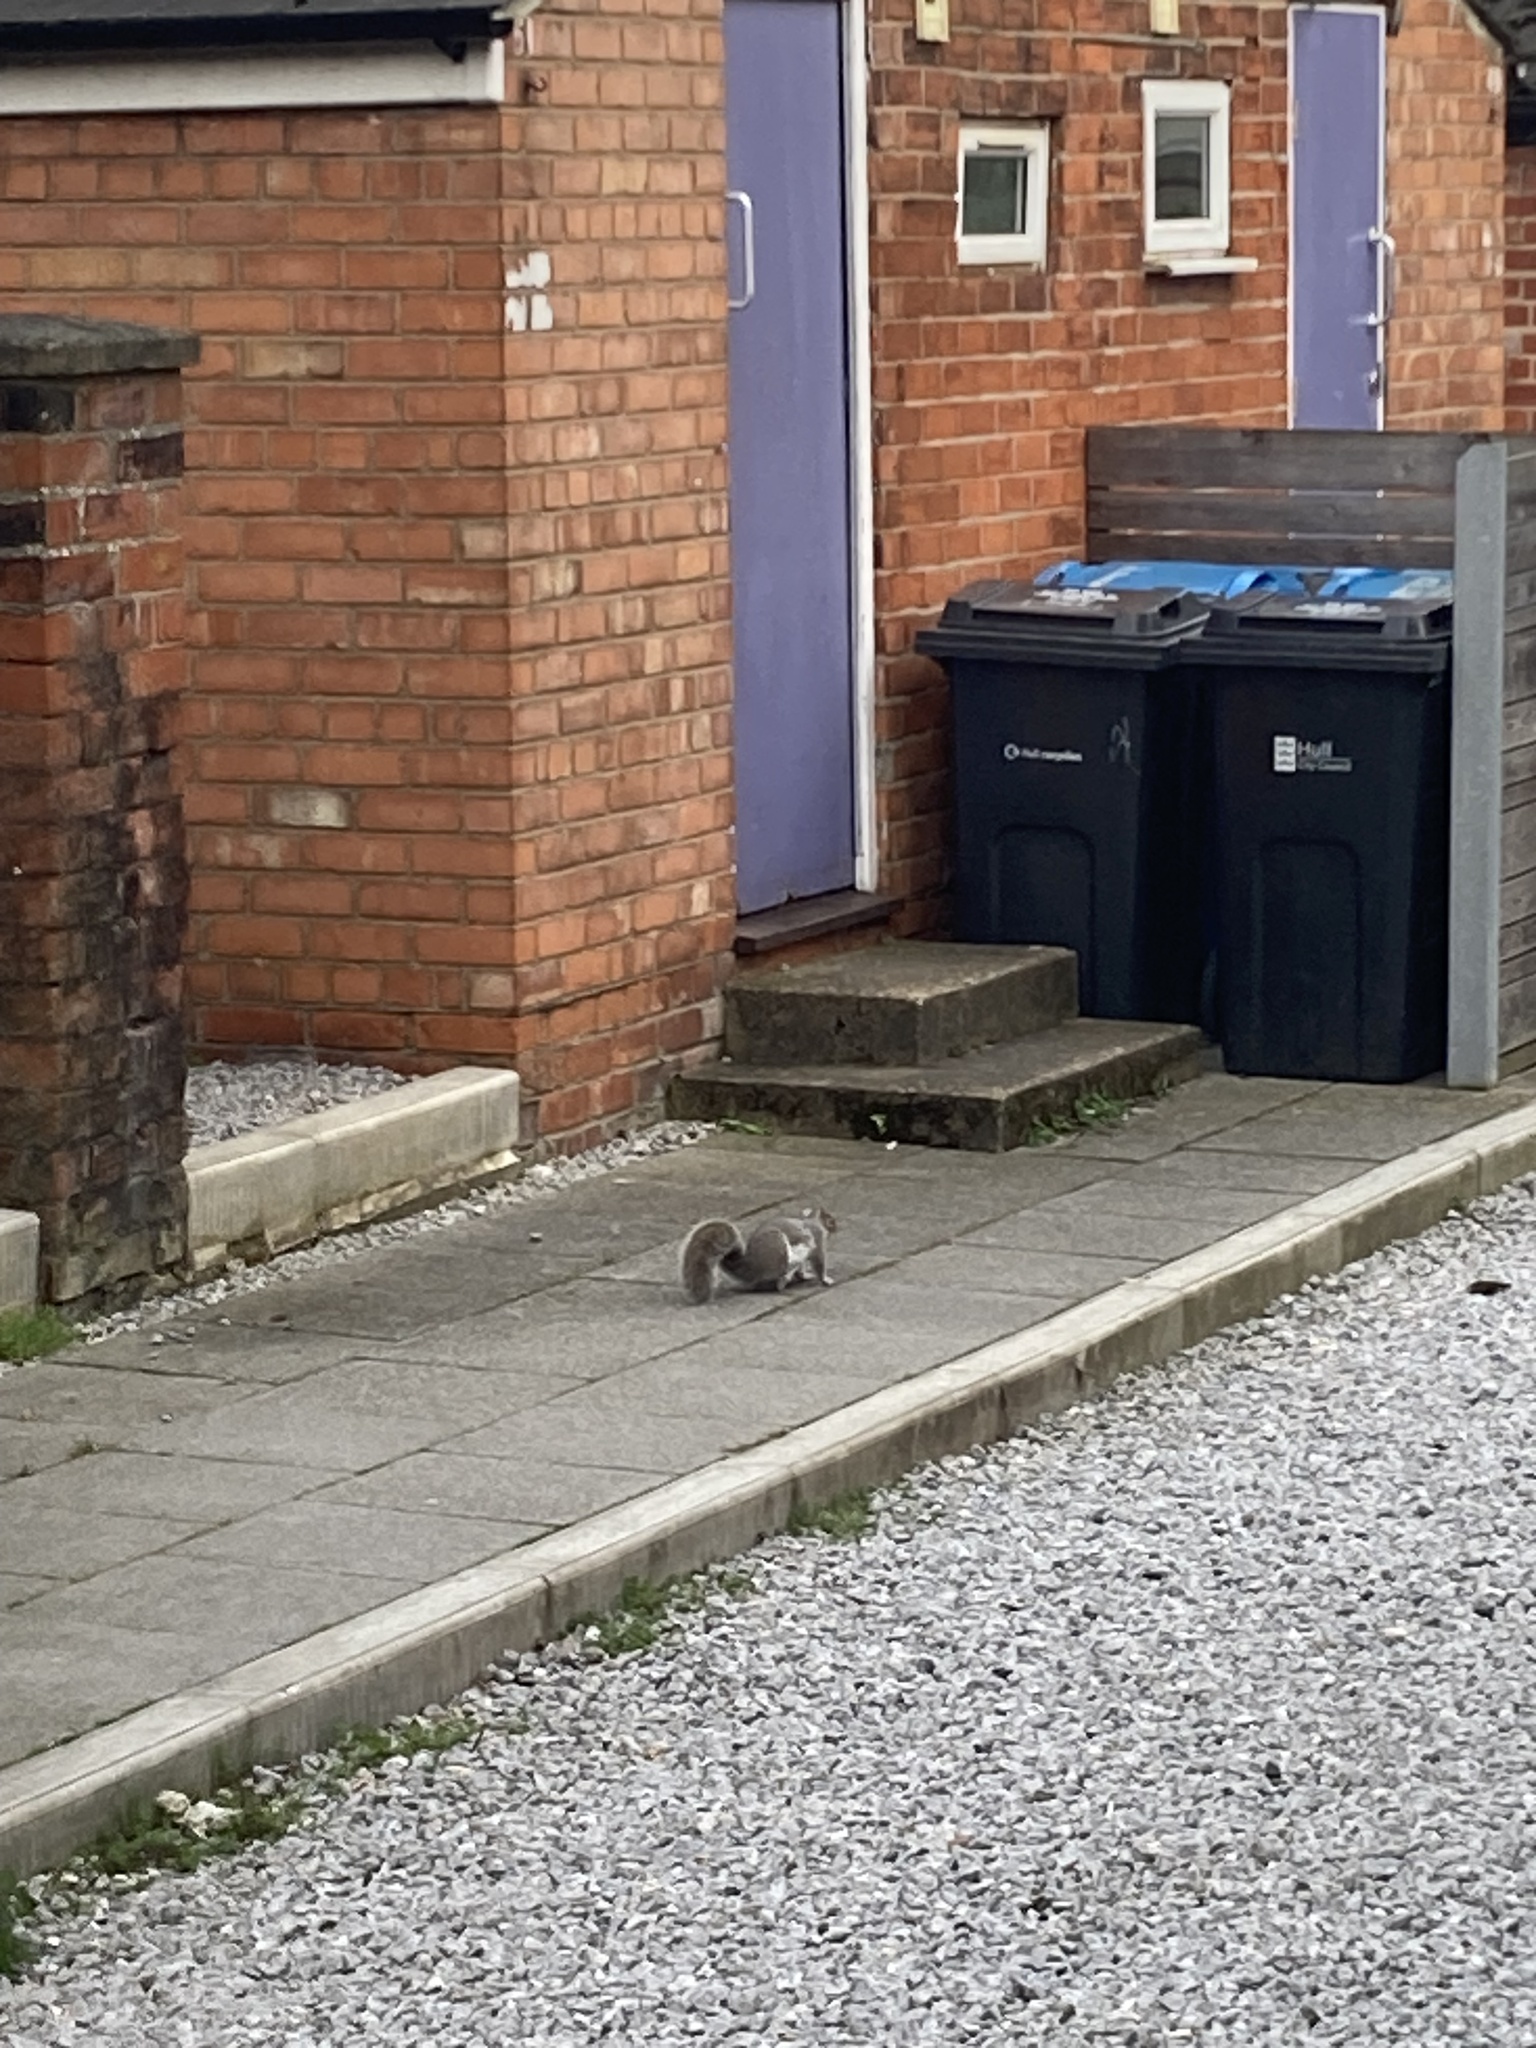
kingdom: Animalia
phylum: Chordata
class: Mammalia
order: Rodentia
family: Sciuridae
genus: Sciurus
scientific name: Sciurus carolinensis
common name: Eastern gray squirrel
